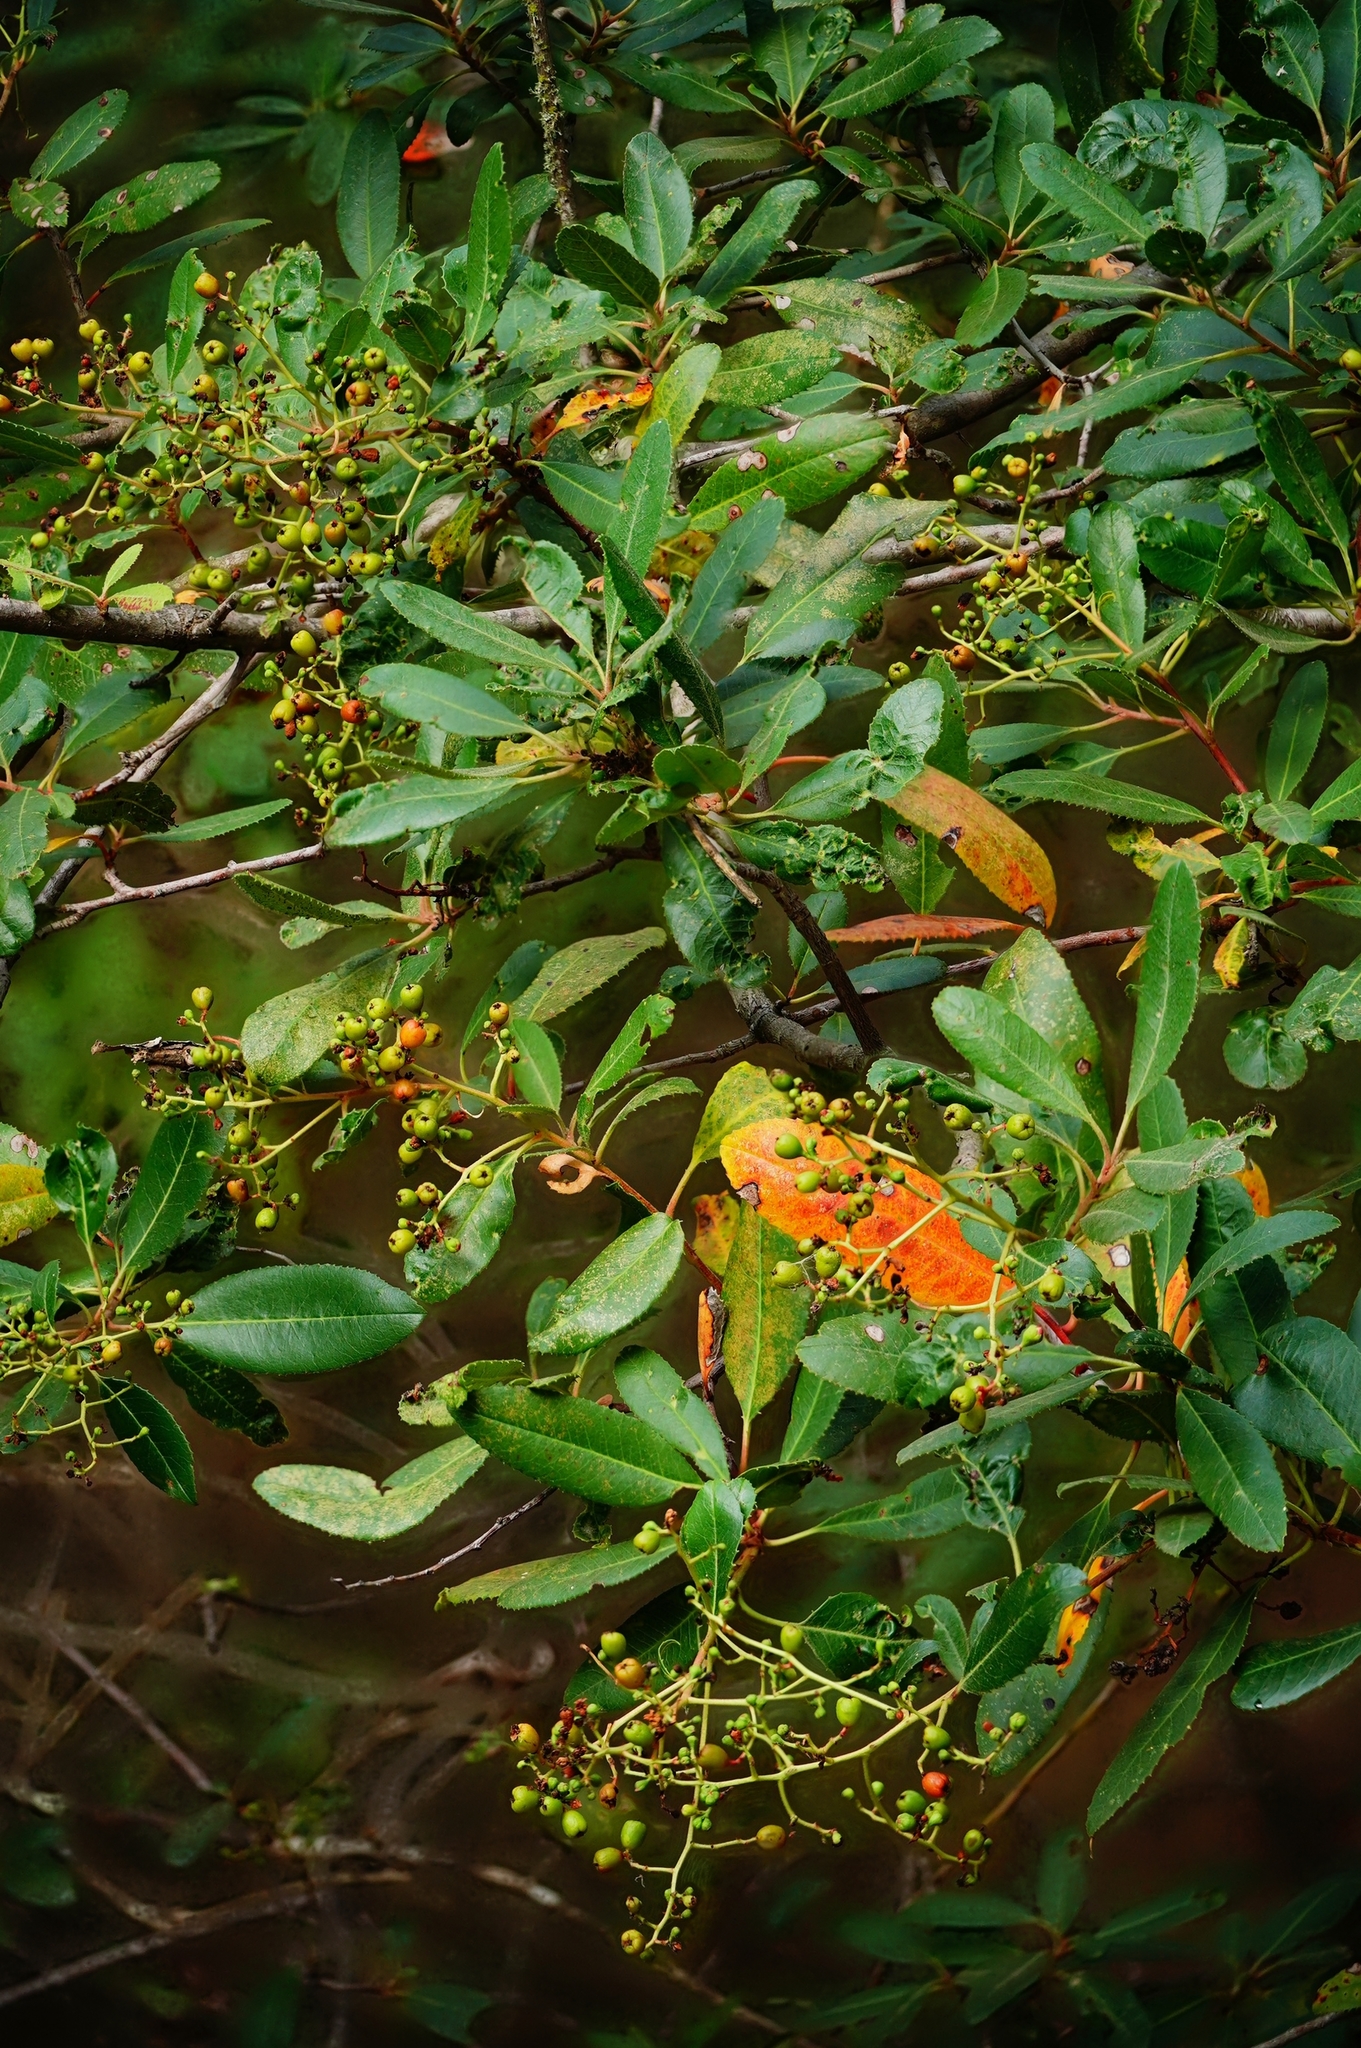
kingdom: Plantae
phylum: Tracheophyta
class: Magnoliopsida
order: Rosales
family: Rosaceae
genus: Heteromeles
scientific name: Heteromeles arbutifolia
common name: California-holly
